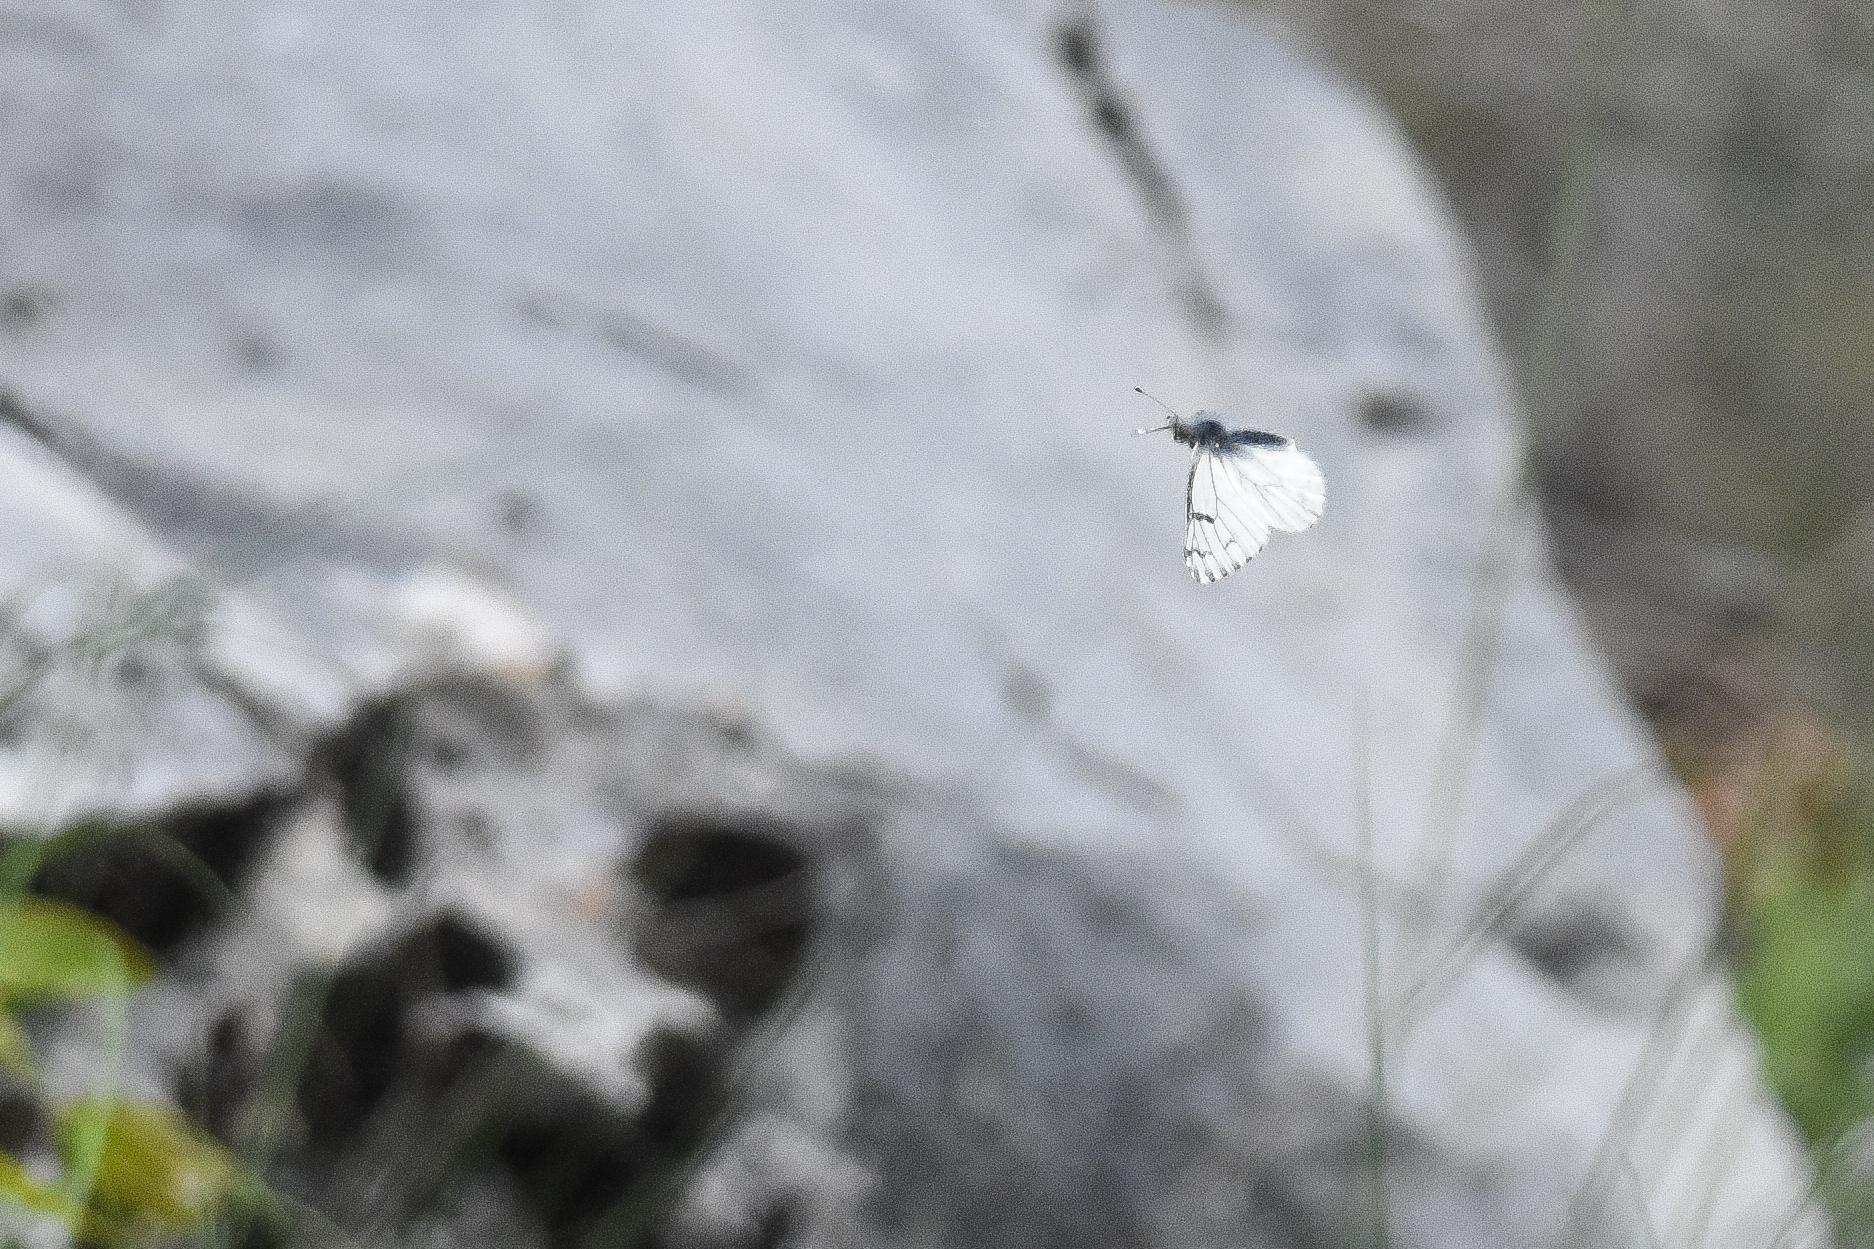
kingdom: Animalia
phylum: Arthropoda
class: Insecta
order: Lepidoptera
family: Pieridae
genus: Pontia
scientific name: Pontia sisymbrii
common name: California white
